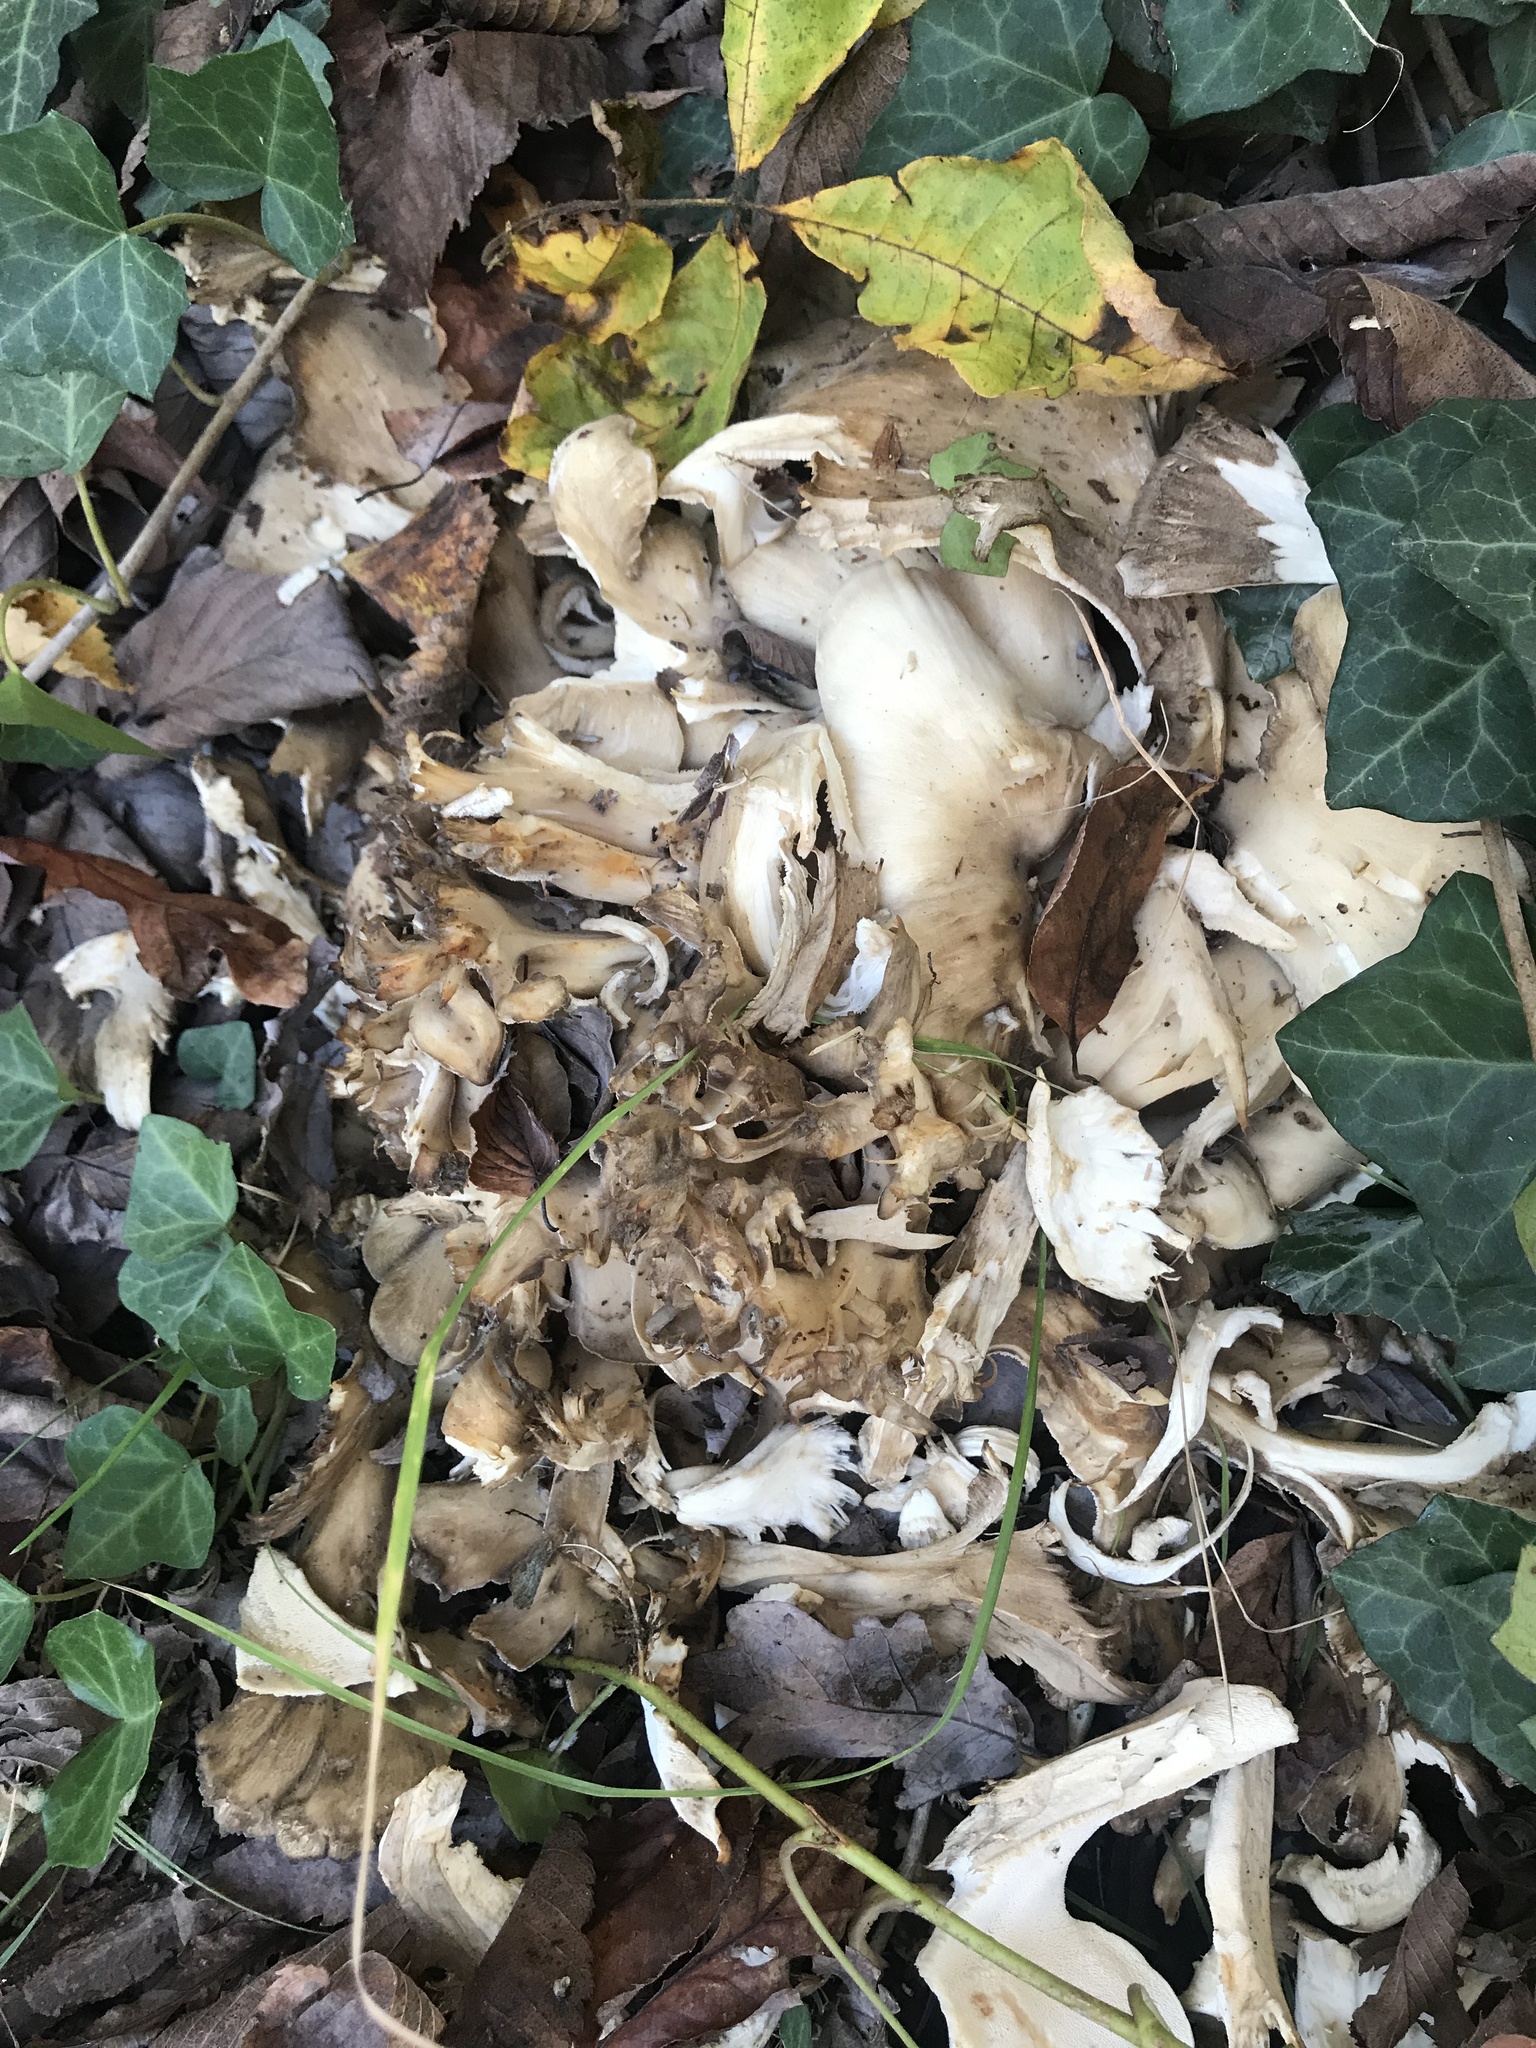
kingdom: Fungi
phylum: Basidiomycota
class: Agaricomycetes
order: Polyporales
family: Grifolaceae
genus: Grifola
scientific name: Grifola frondosa
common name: Hen of the woods
